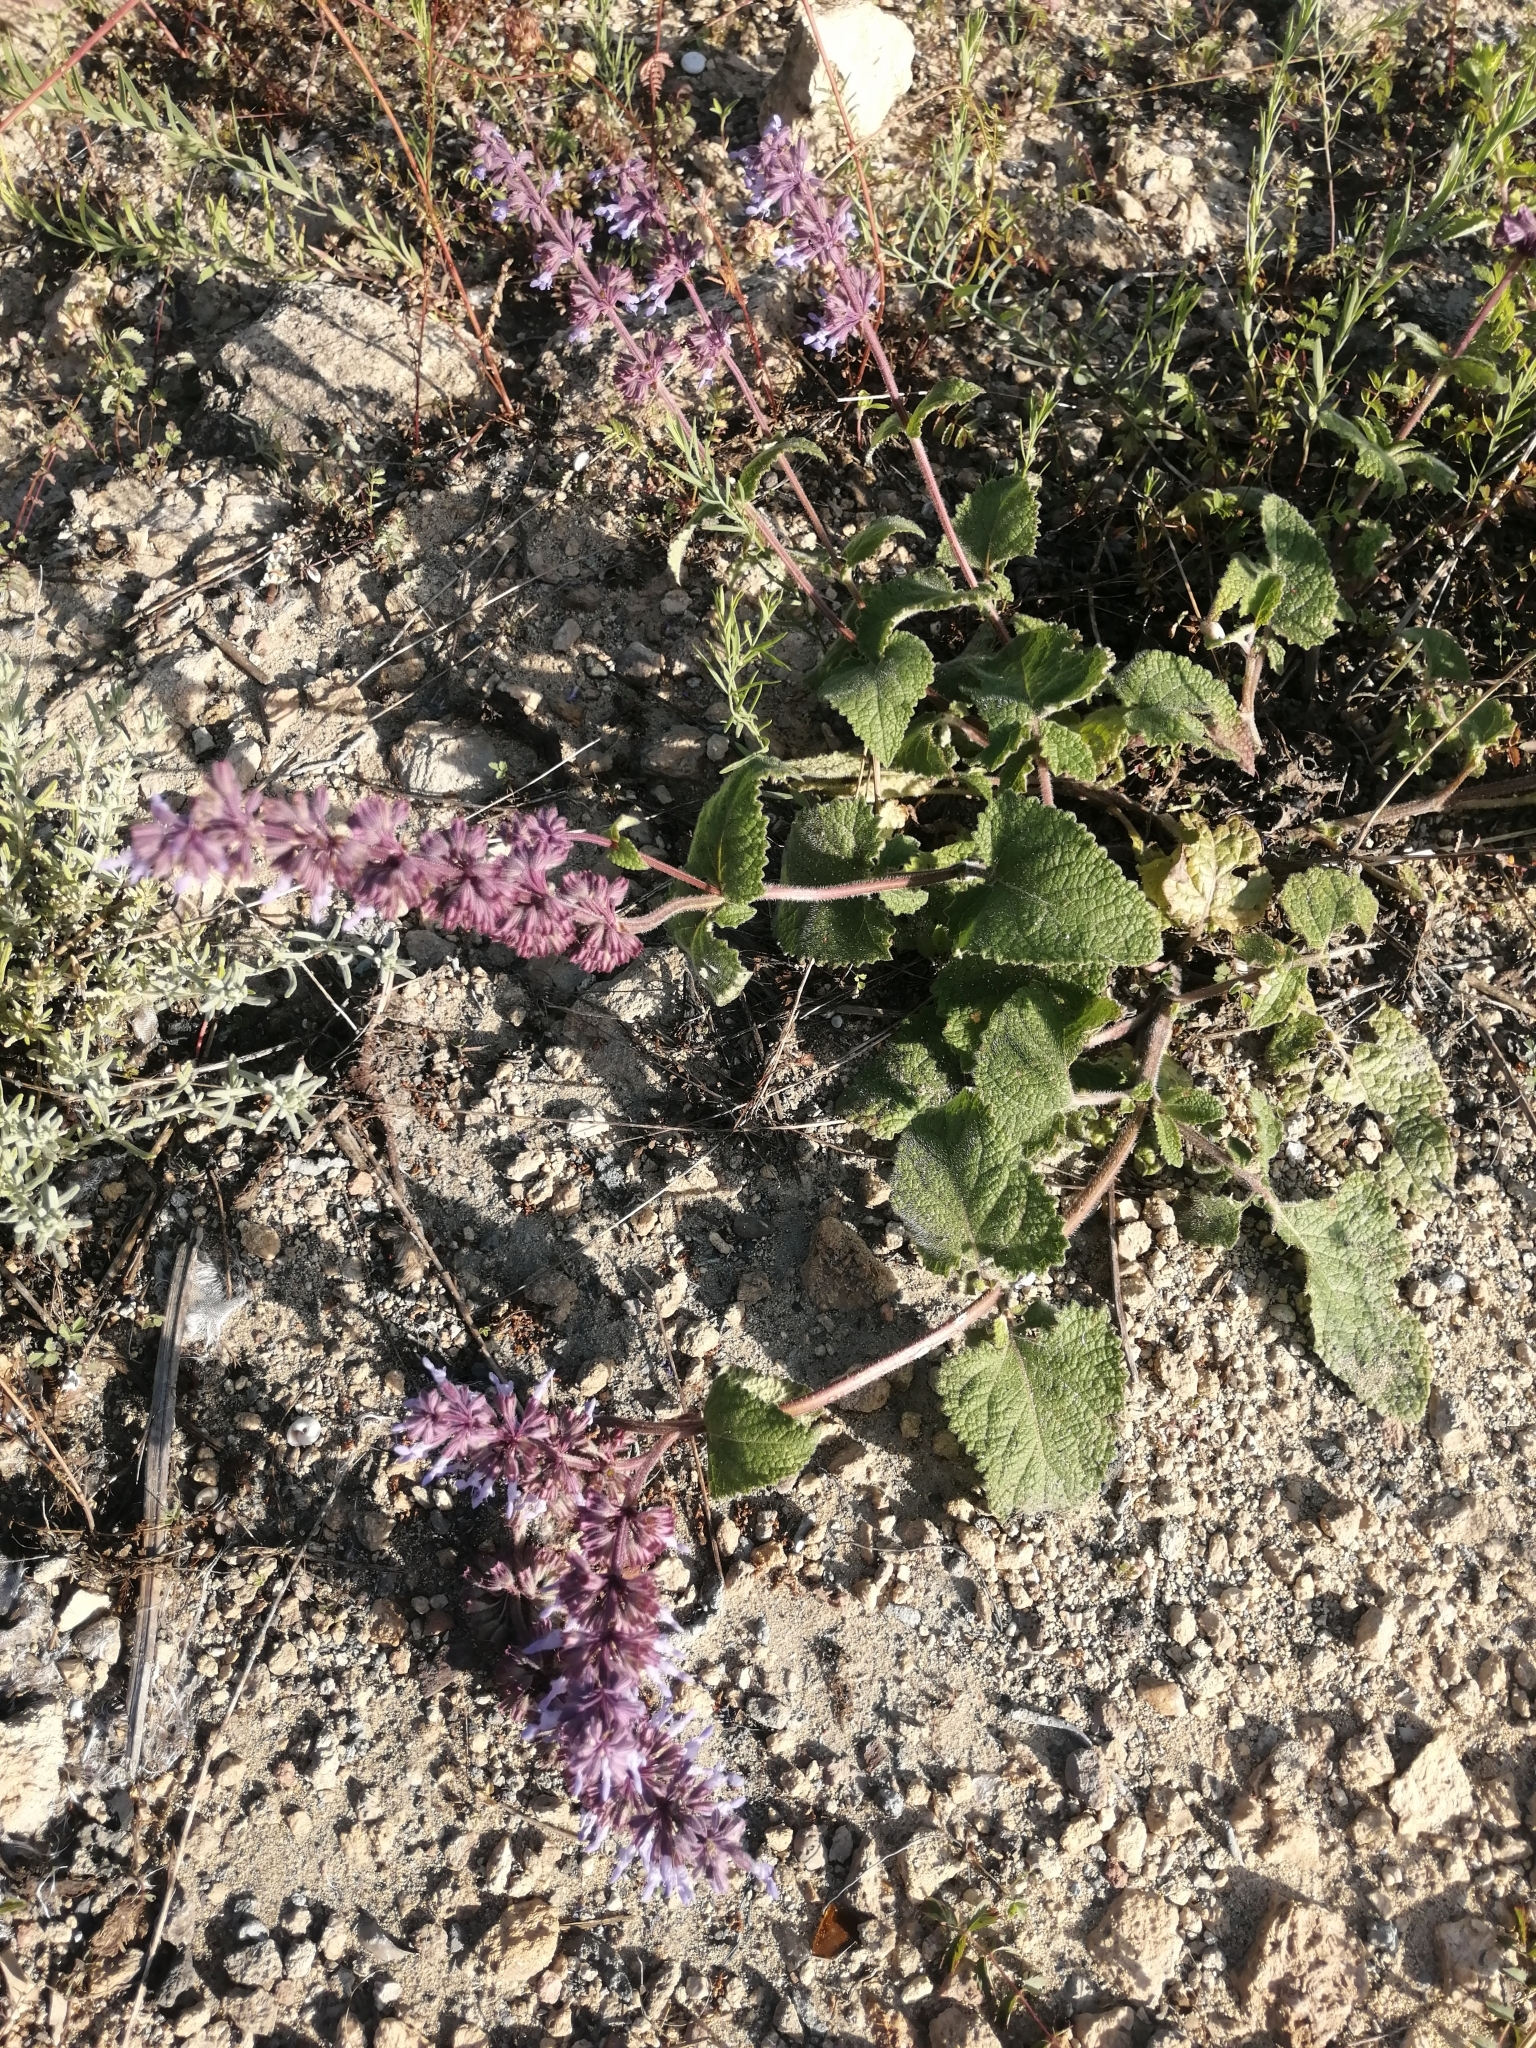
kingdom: Plantae
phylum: Tracheophyta
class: Magnoliopsida
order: Lamiales
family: Lamiaceae
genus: Salvia
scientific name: Salvia verticillata
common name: Whorled clary
